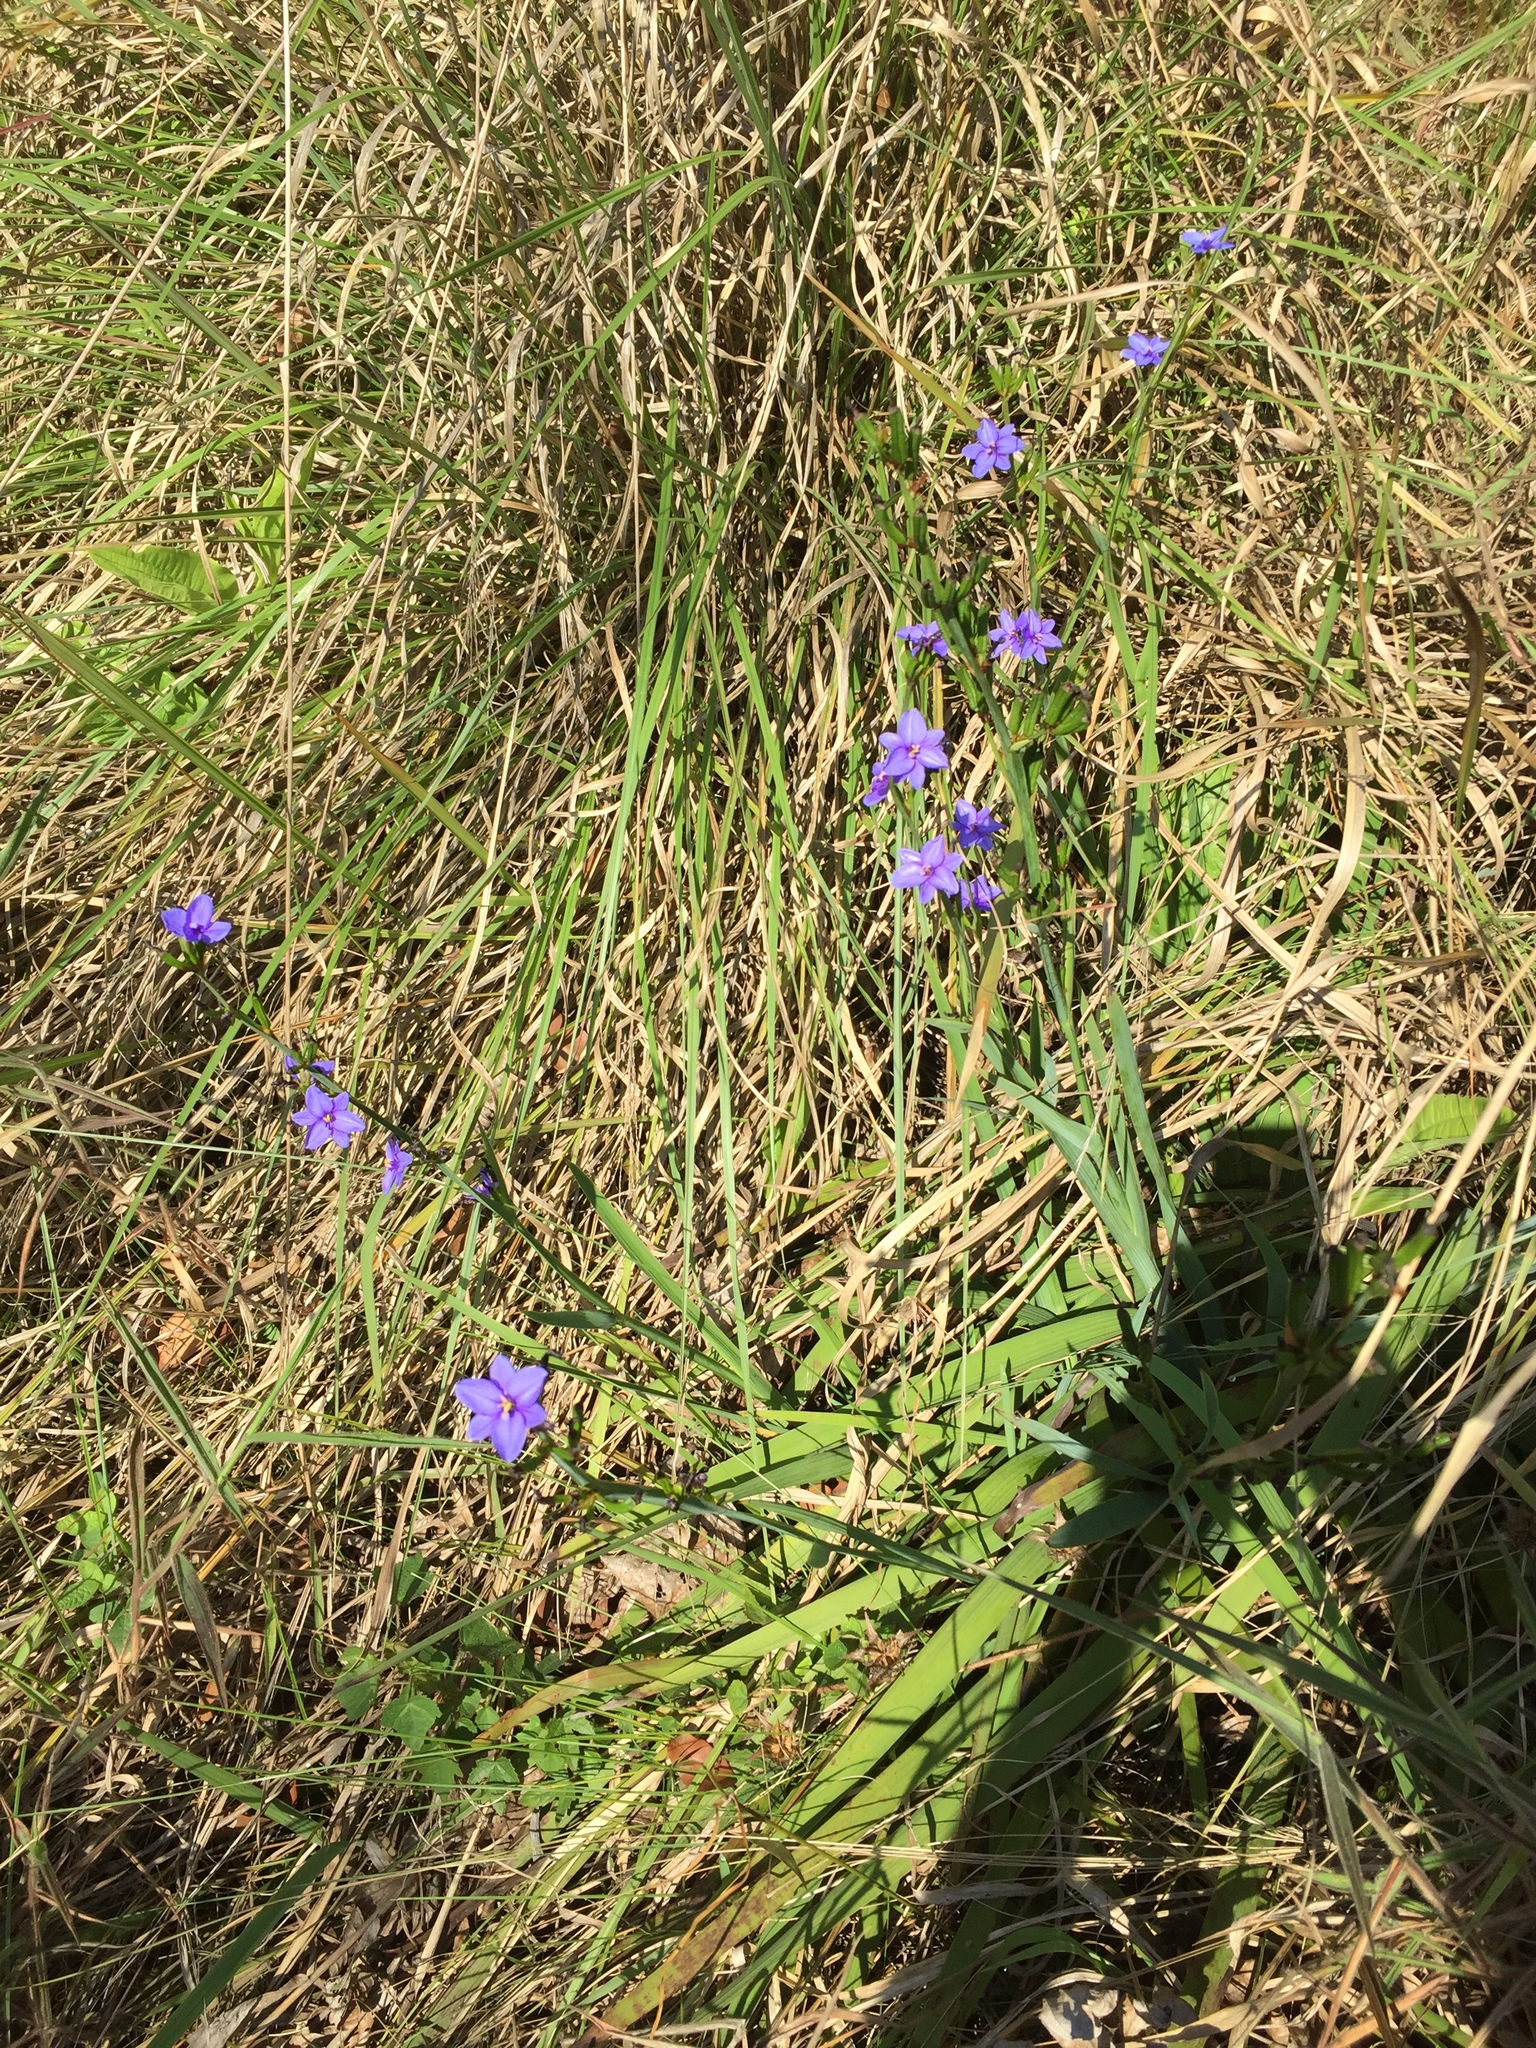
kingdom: Plantae
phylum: Tracheophyta
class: Liliopsida
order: Asparagales
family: Iridaceae
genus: Aristea
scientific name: Aristea ecklonii
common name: Blue corn-lily
